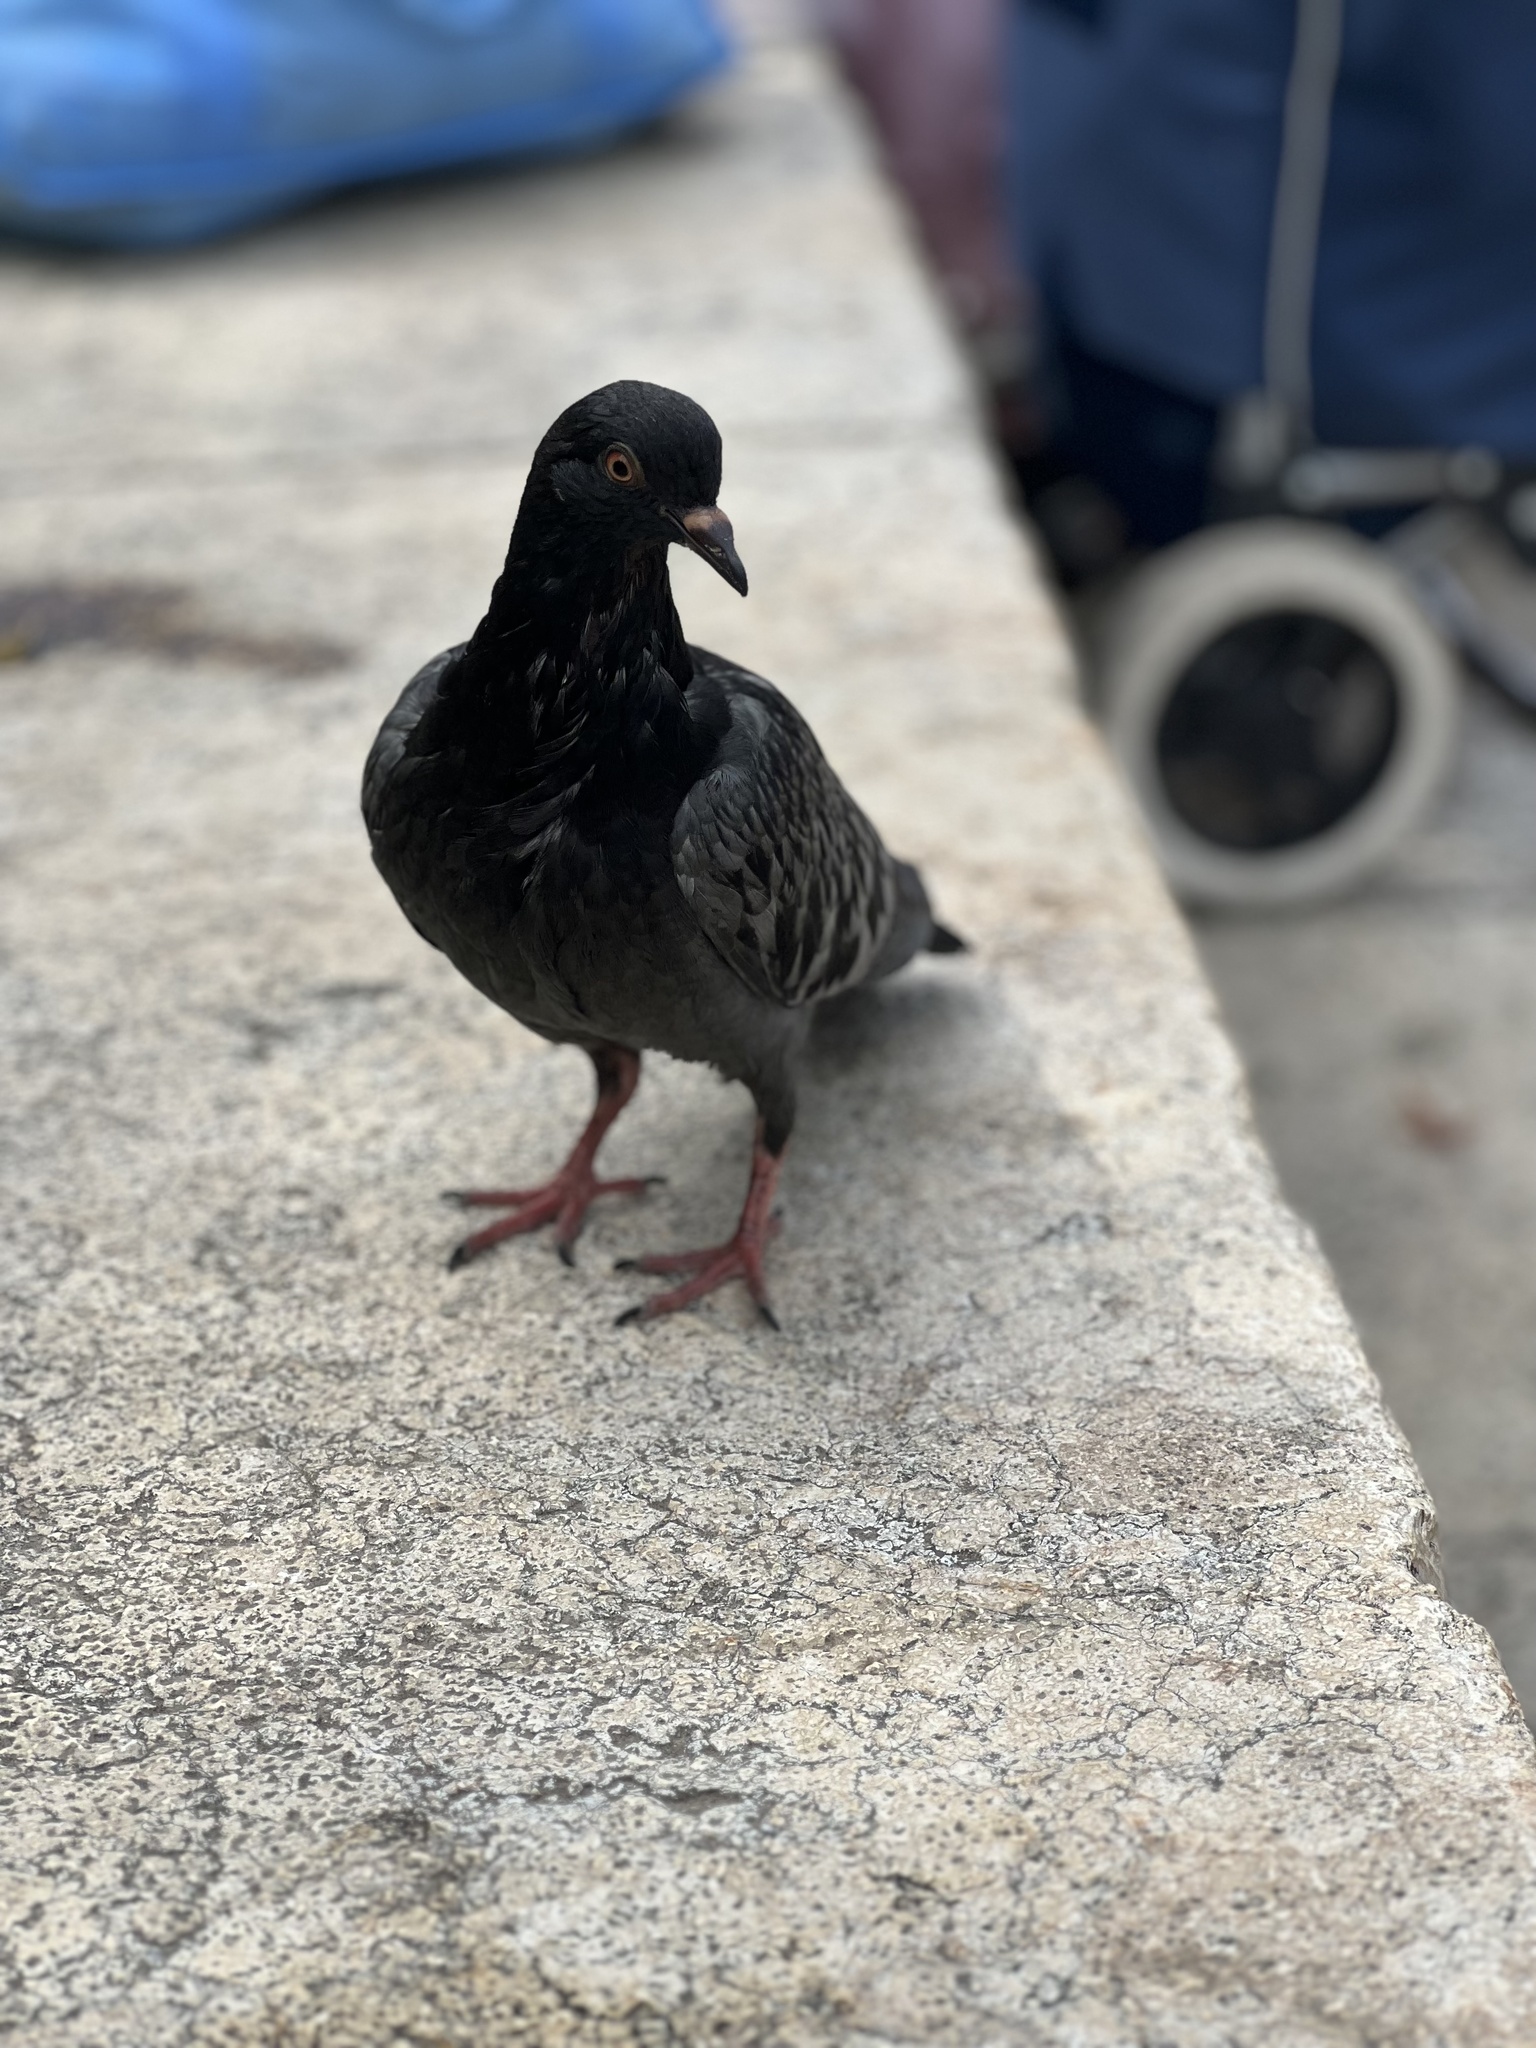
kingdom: Animalia
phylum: Chordata
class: Aves
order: Columbiformes
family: Columbidae
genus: Columba
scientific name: Columba livia
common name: Rock pigeon
